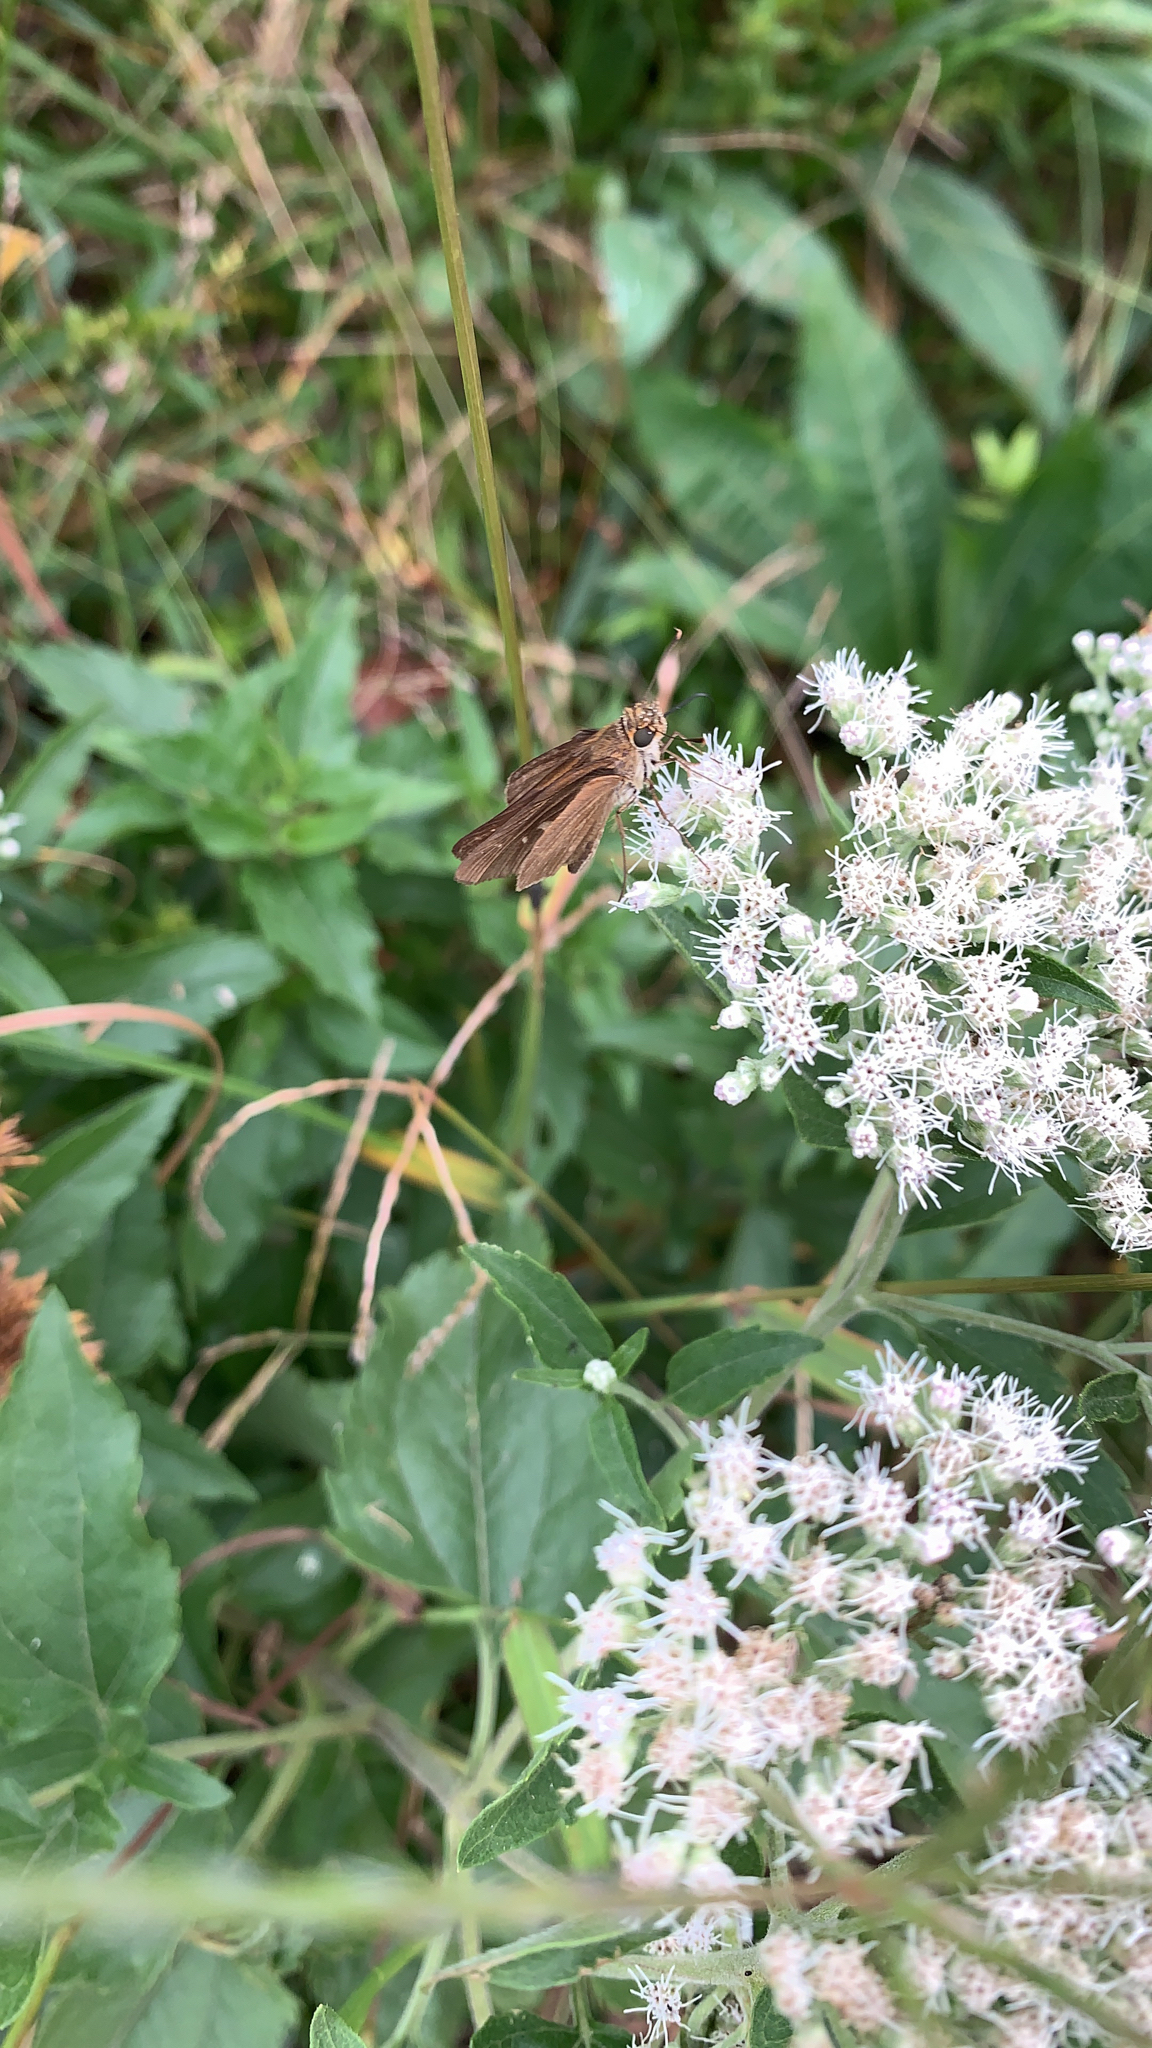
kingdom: Animalia
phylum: Arthropoda
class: Insecta
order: Lepidoptera
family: Hesperiidae
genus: Panoquina
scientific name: Panoquina ocola
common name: Ocola skipper
